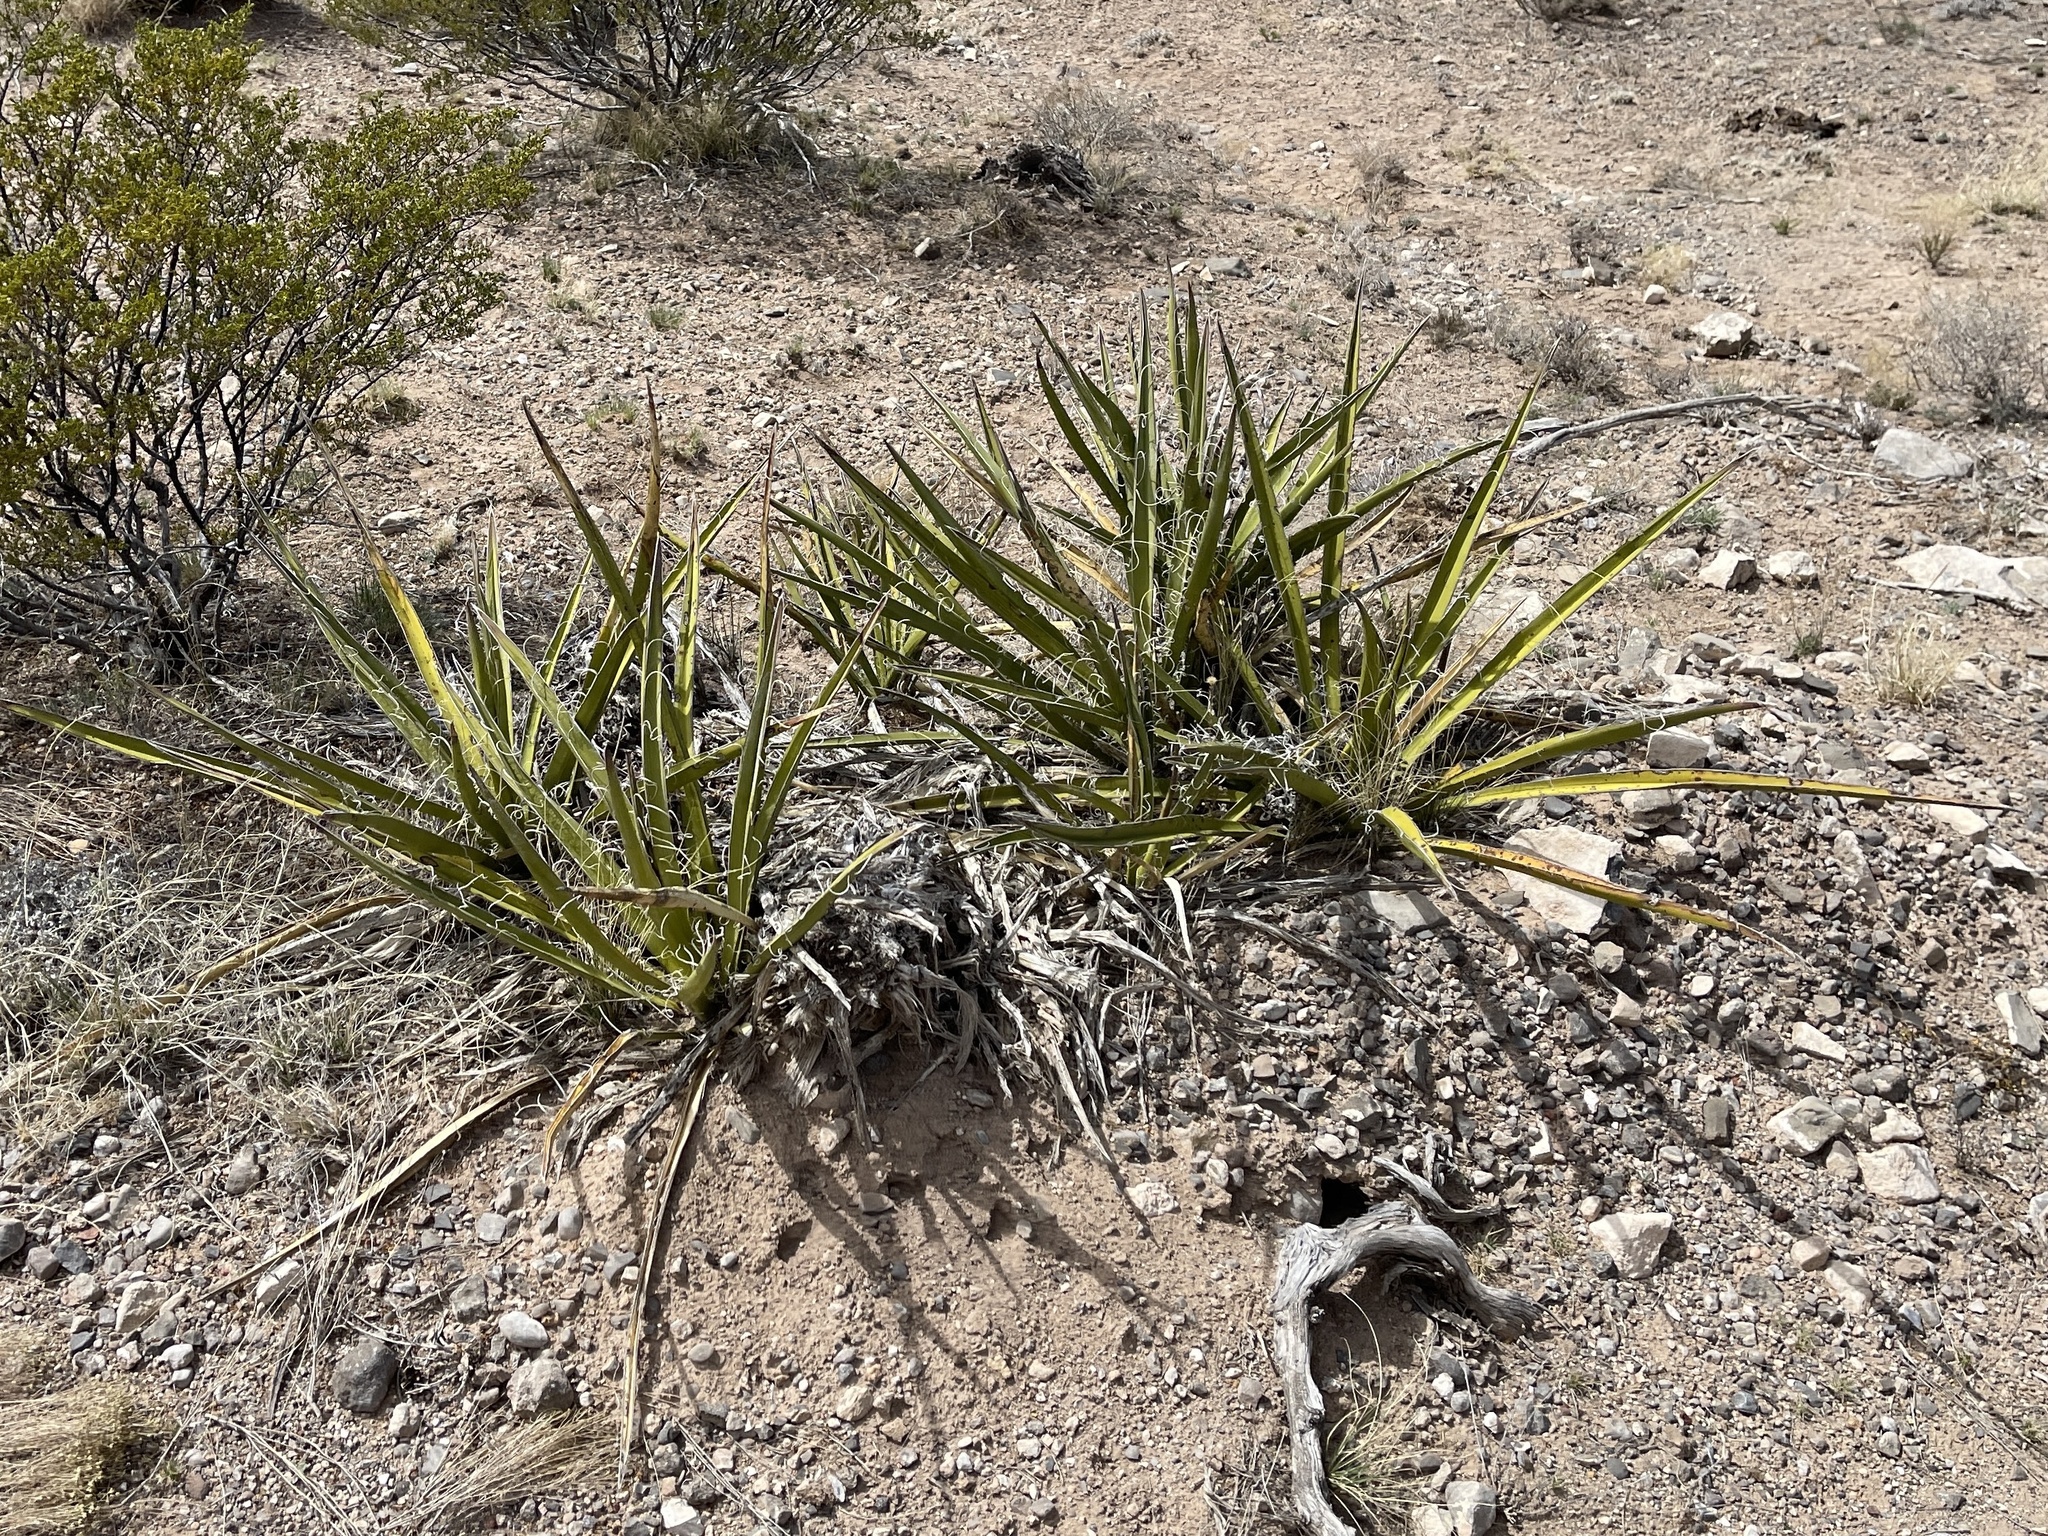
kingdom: Plantae
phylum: Tracheophyta
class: Liliopsida
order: Asparagales
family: Asparagaceae
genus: Yucca
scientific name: Yucca baccata
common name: Banana yucca
